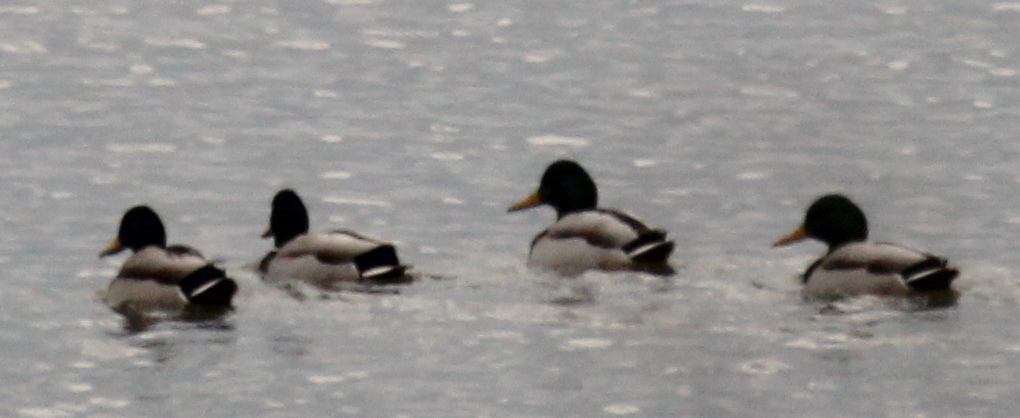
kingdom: Animalia
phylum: Chordata
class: Aves
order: Anseriformes
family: Anatidae
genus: Anas
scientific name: Anas platyrhynchos
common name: Mallard
